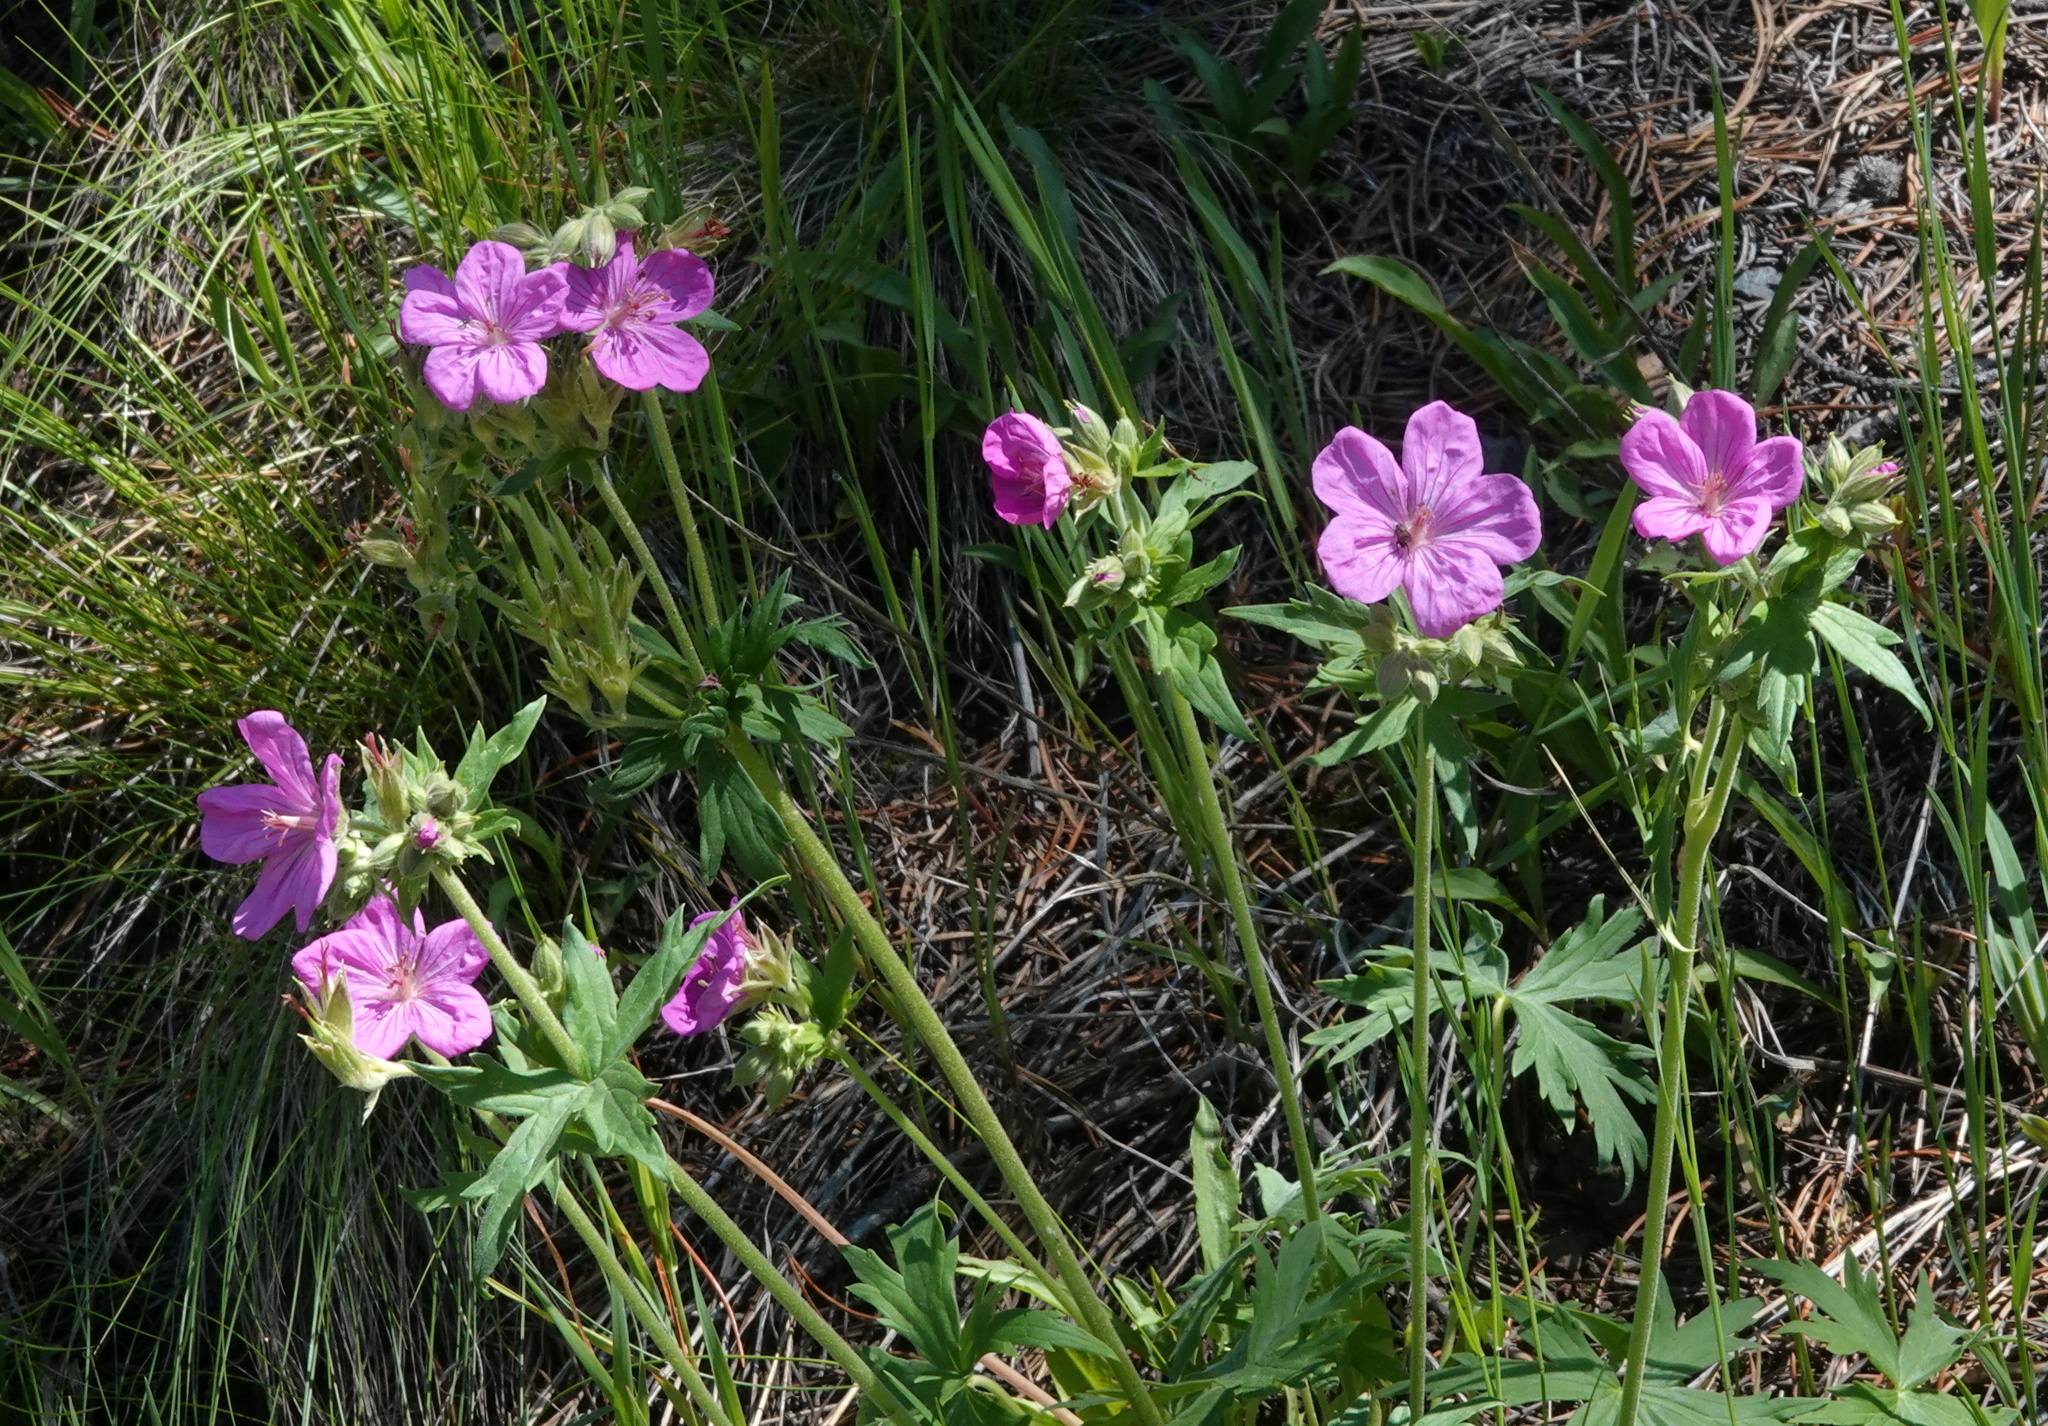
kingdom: Plantae
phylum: Tracheophyta
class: Magnoliopsida
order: Geraniales
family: Geraniaceae
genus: Geranium
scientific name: Geranium viscosissimum
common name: Purple geranium
